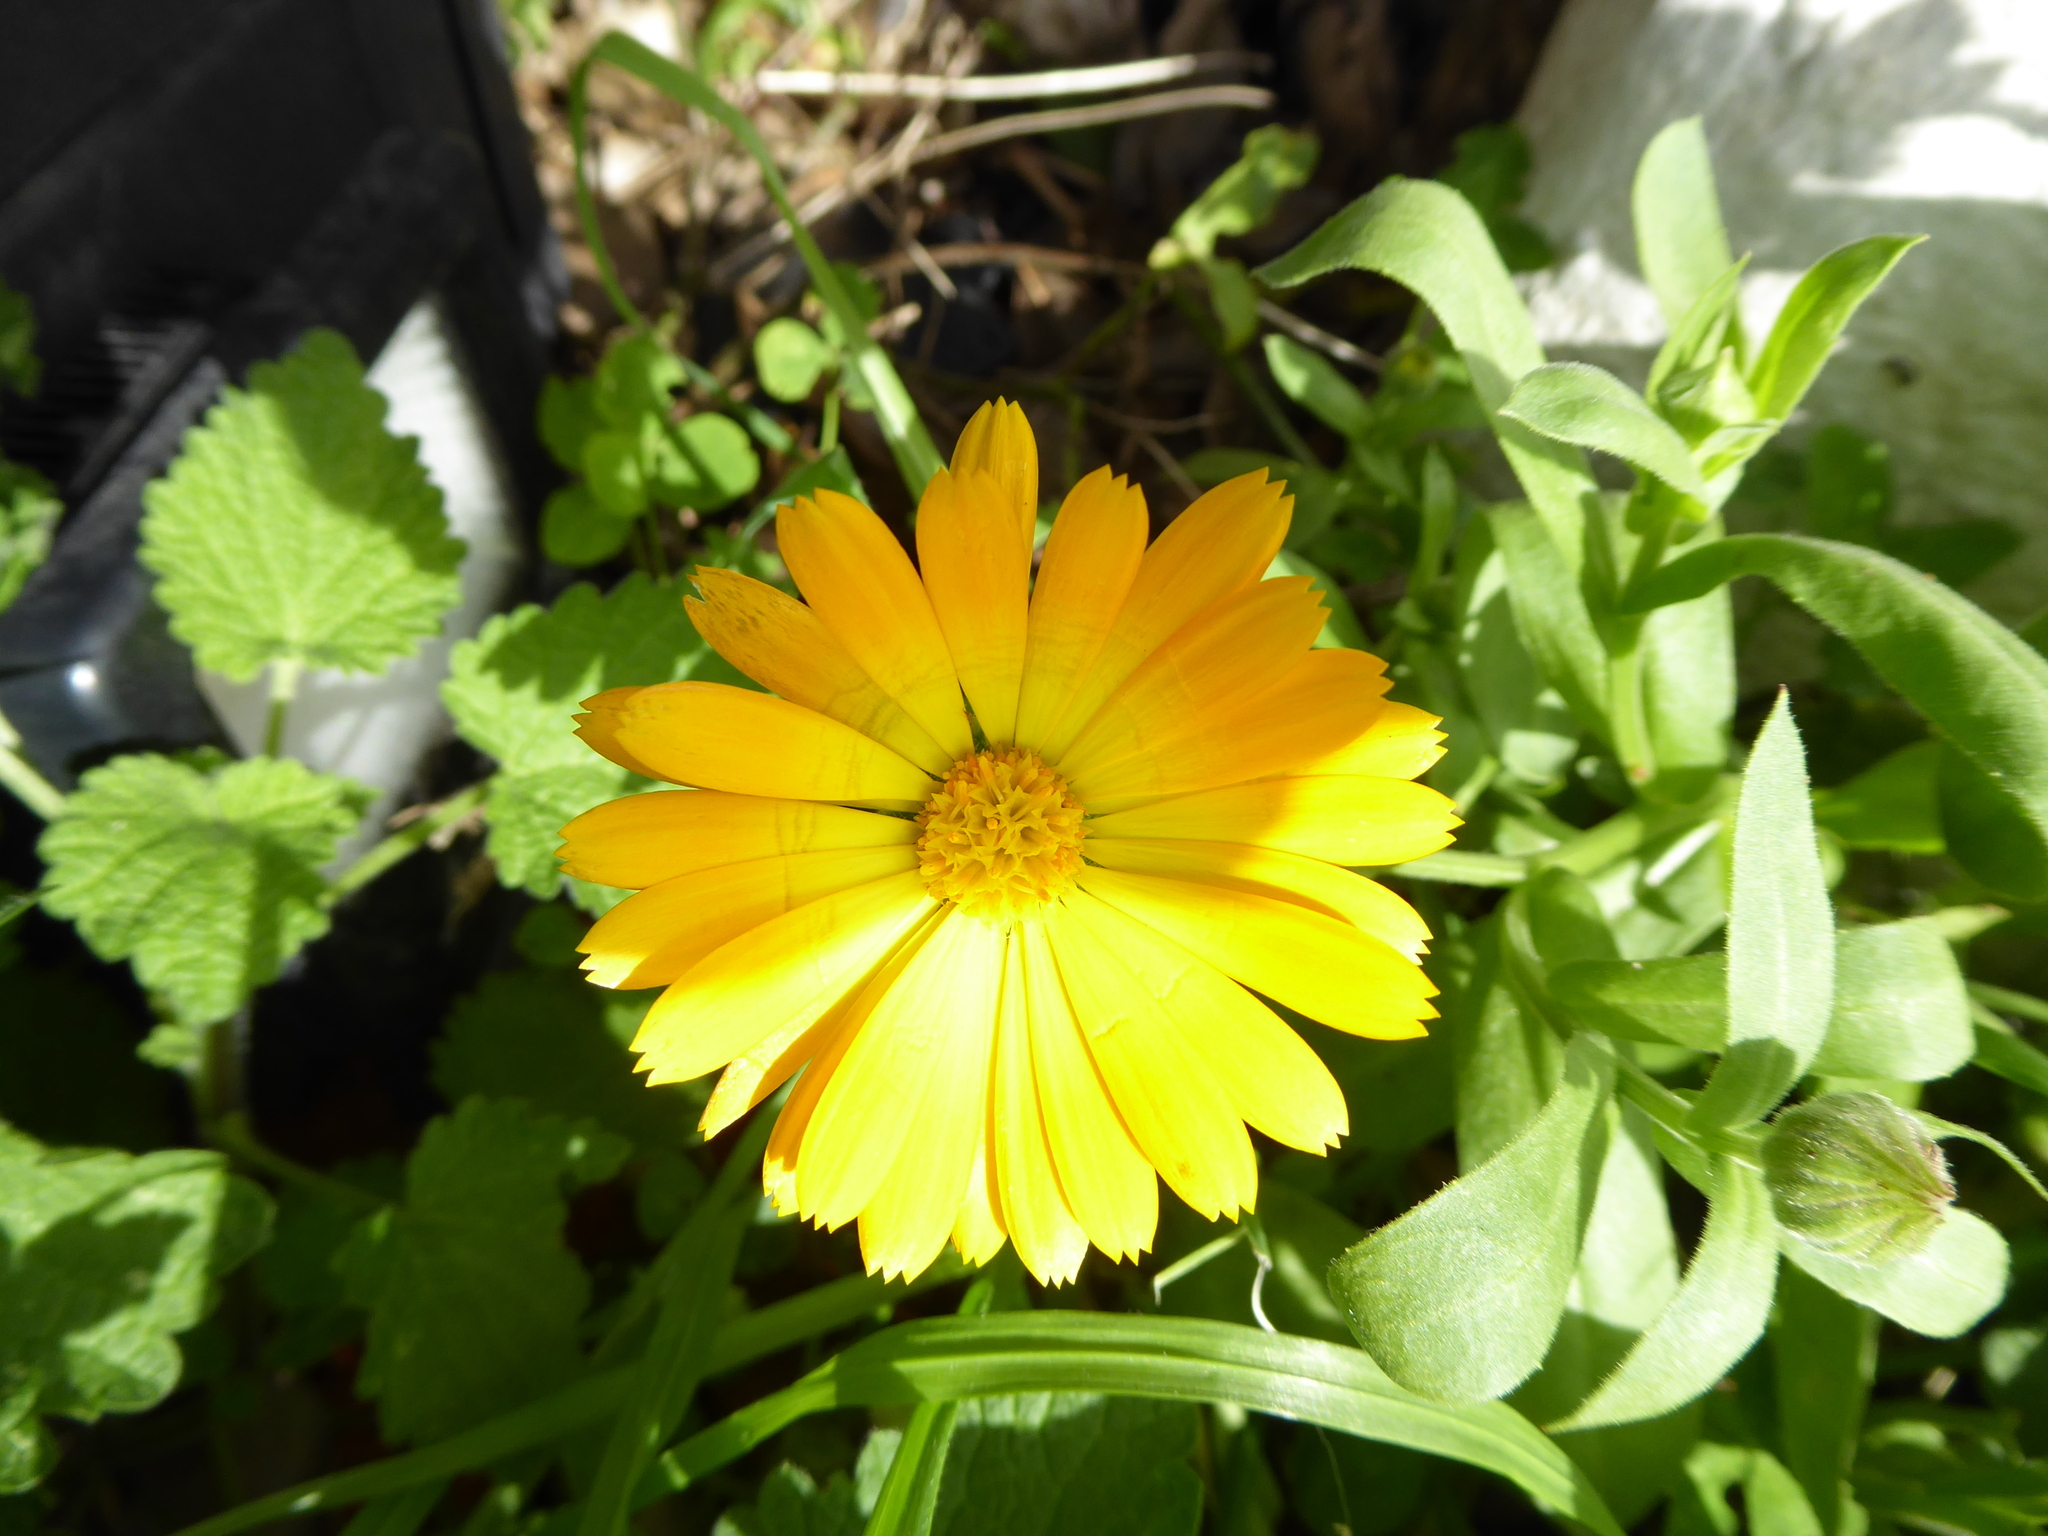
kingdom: Plantae
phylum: Tracheophyta
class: Magnoliopsida
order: Asterales
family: Asteraceae
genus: Calendula
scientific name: Calendula officinalis
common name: Pot marigold
